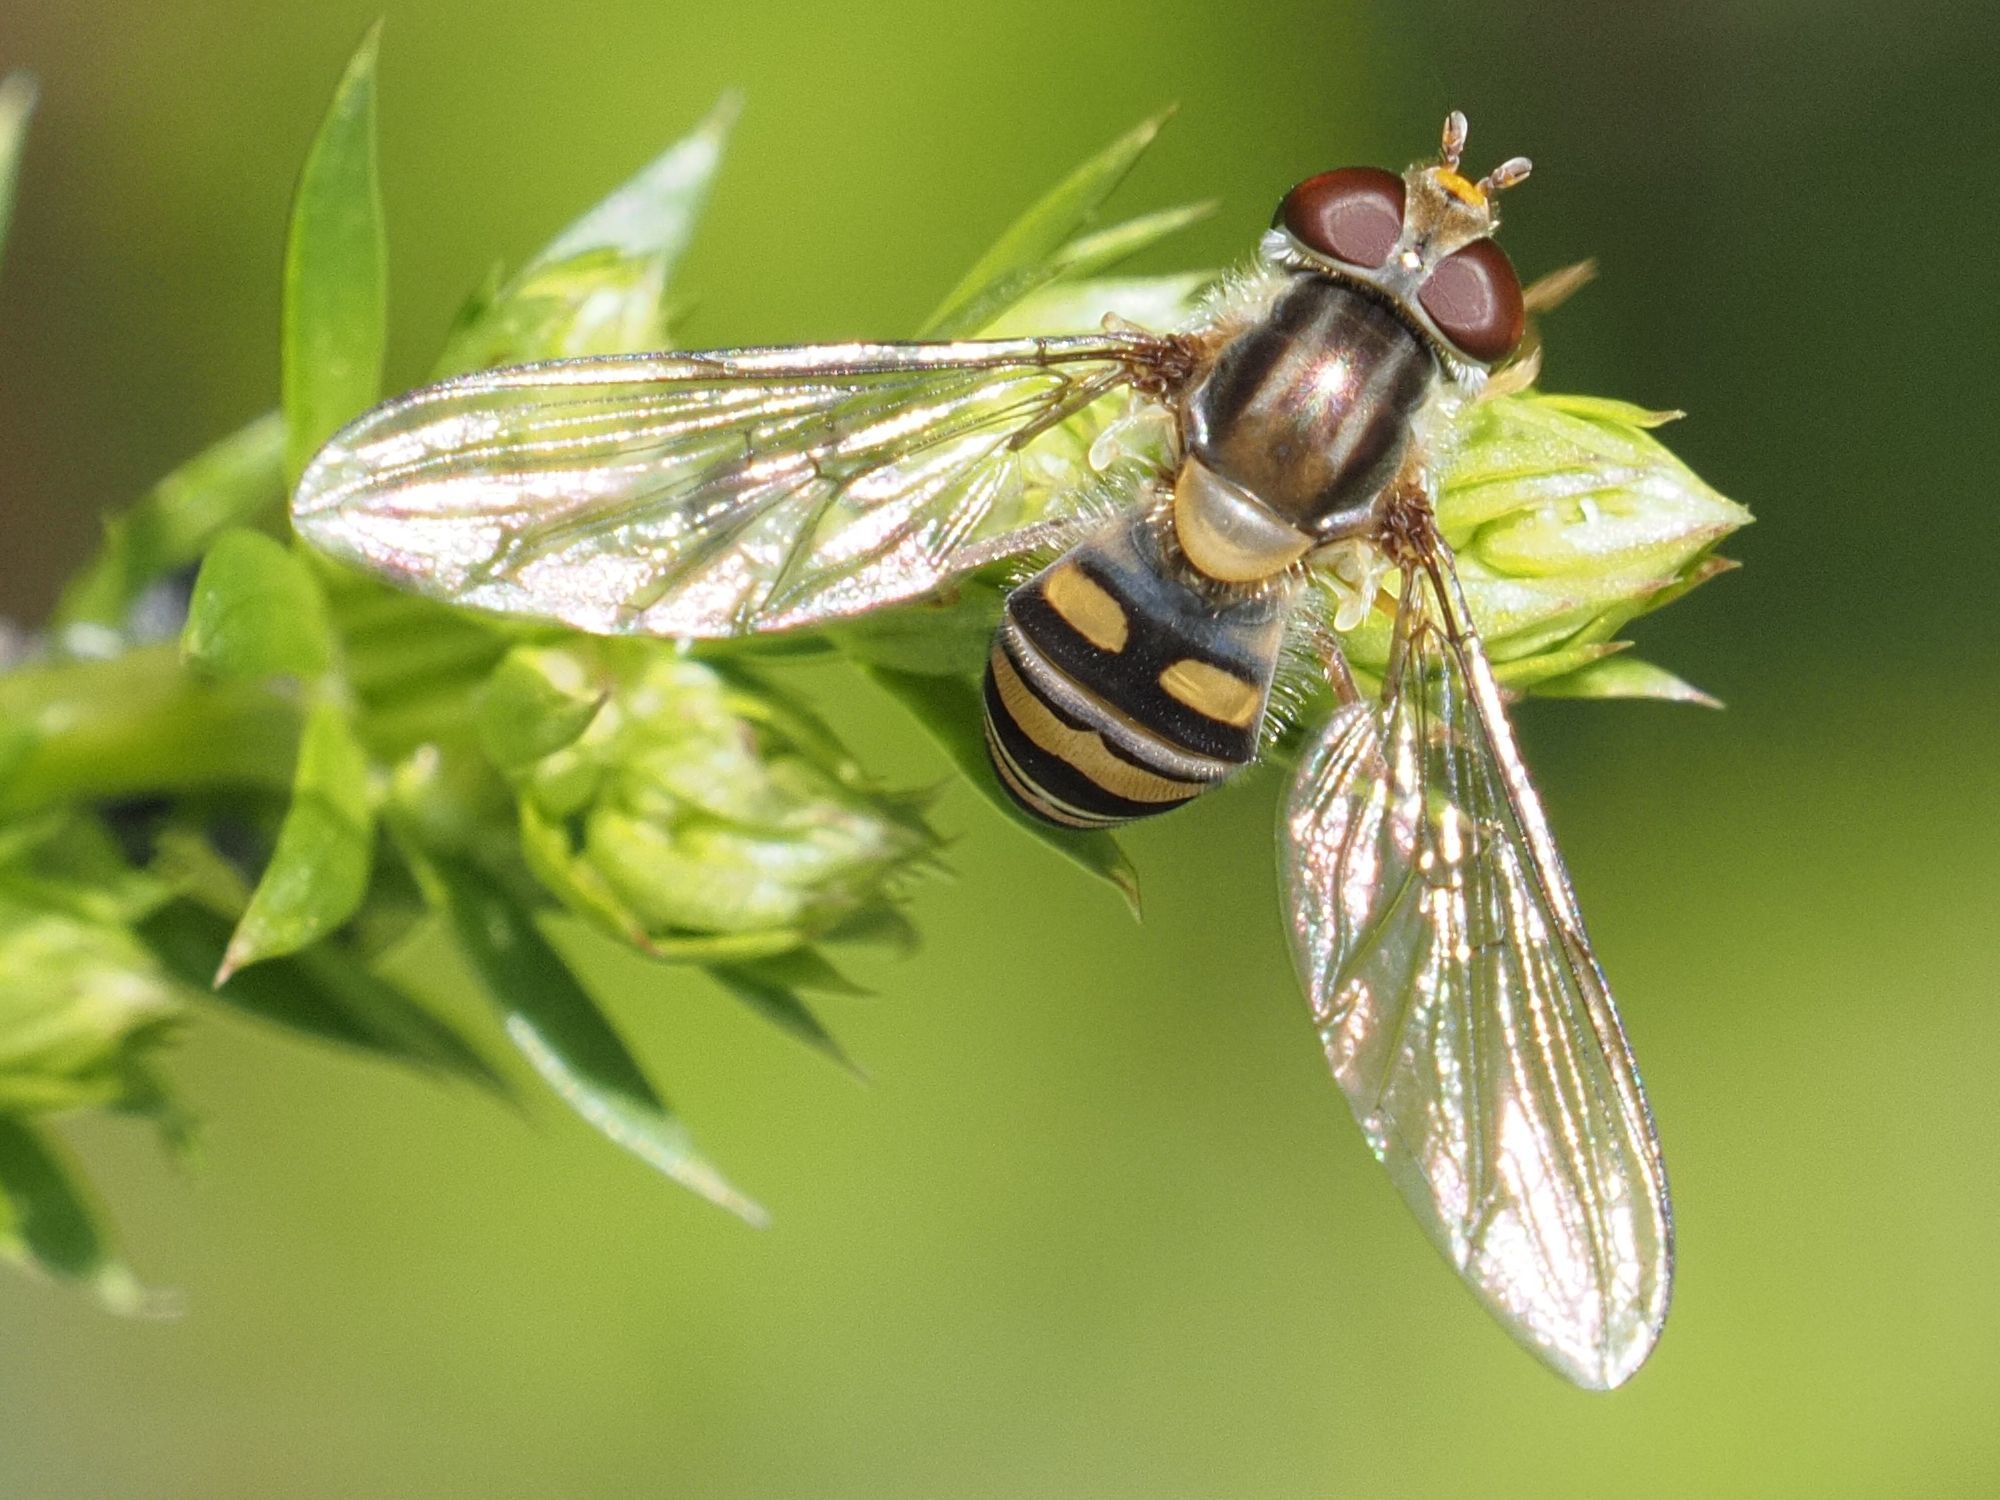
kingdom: Animalia
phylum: Arthropoda
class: Insecta
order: Diptera
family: Syrphidae
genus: Episyrphus
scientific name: Episyrphus balteatus
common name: Marmalade hoverfly
